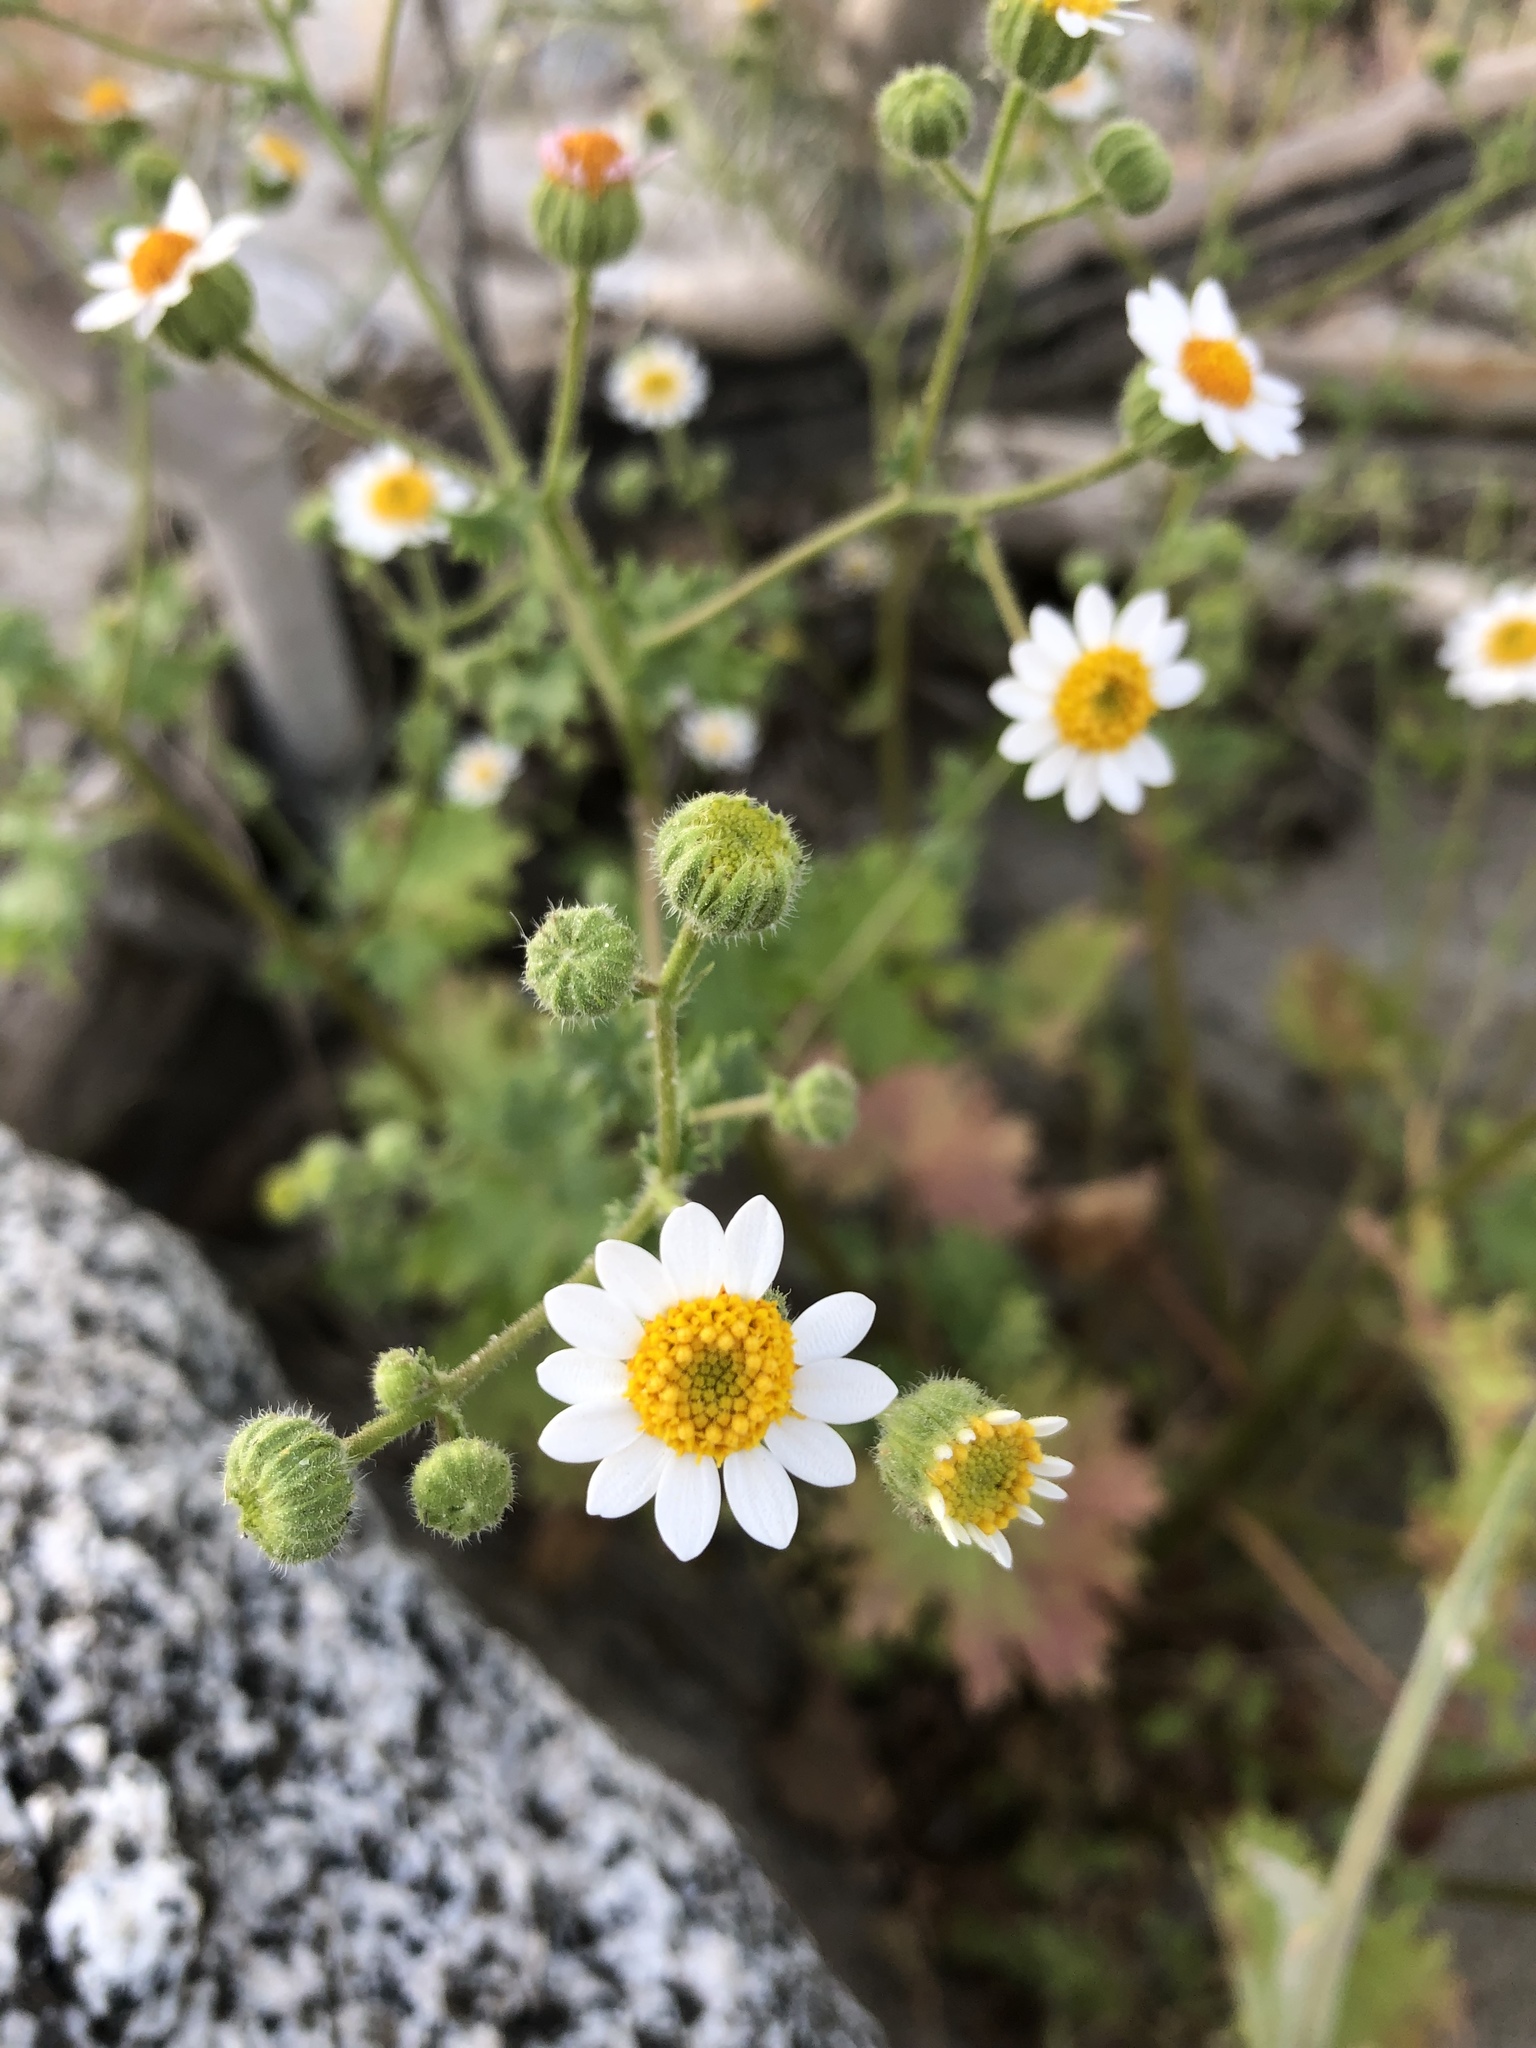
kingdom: Plantae
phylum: Tracheophyta
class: Magnoliopsida
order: Asterales
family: Asteraceae
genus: Laphamia
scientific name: Laphamia emoryi
